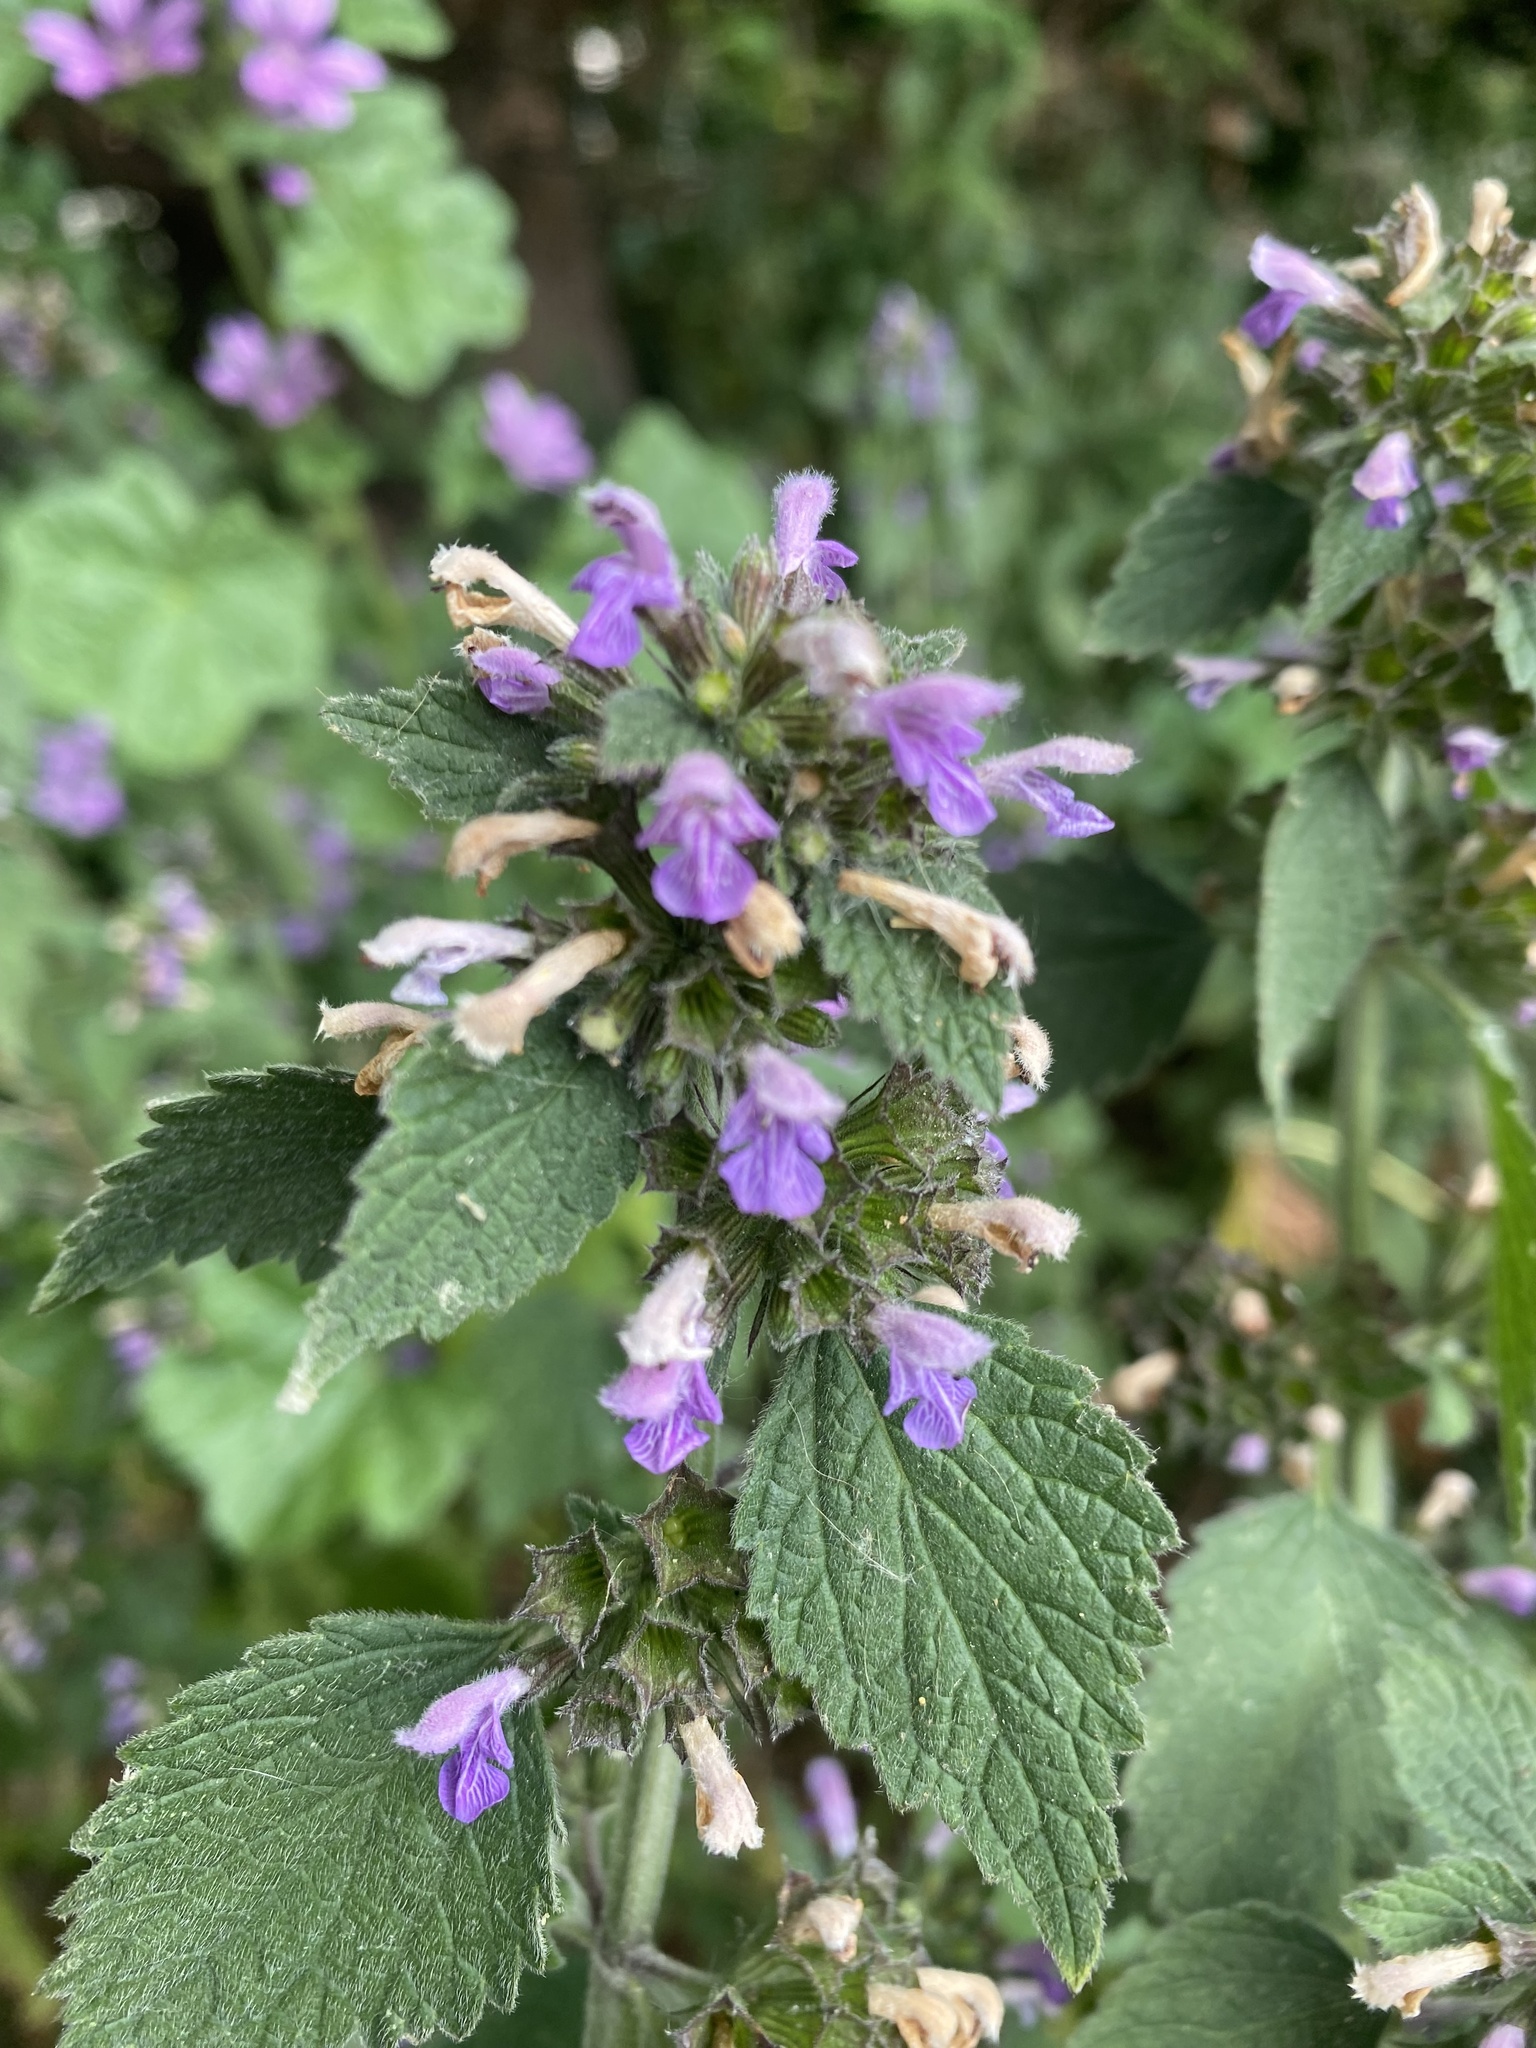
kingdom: Plantae
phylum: Tracheophyta
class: Magnoliopsida
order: Lamiales
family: Lamiaceae
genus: Ballota
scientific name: Ballota nigra
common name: Black horehound
